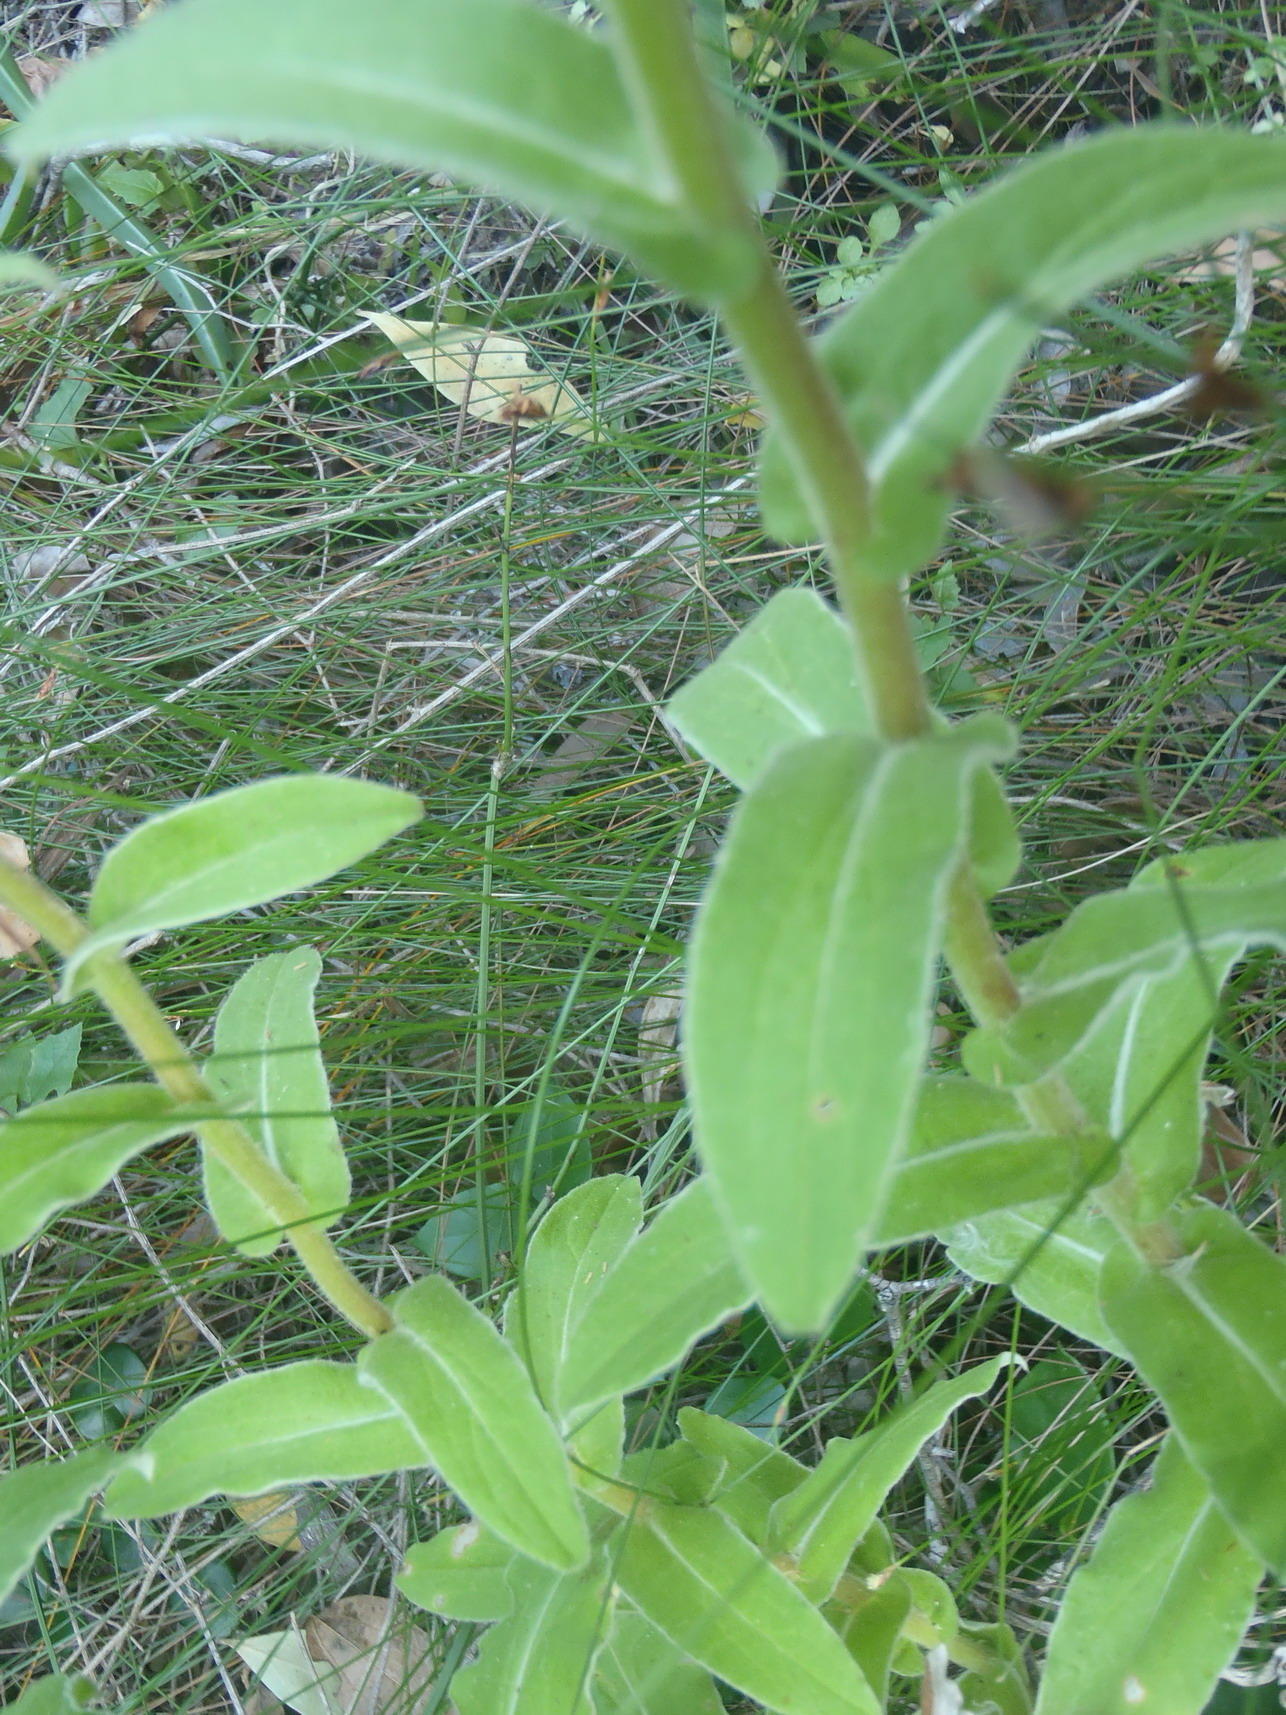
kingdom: Plantae
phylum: Tracheophyta
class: Magnoliopsida
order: Asterales
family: Asteraceae
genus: Helichrysum
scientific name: Helichrysum foetidum
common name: Stinking everlasting
